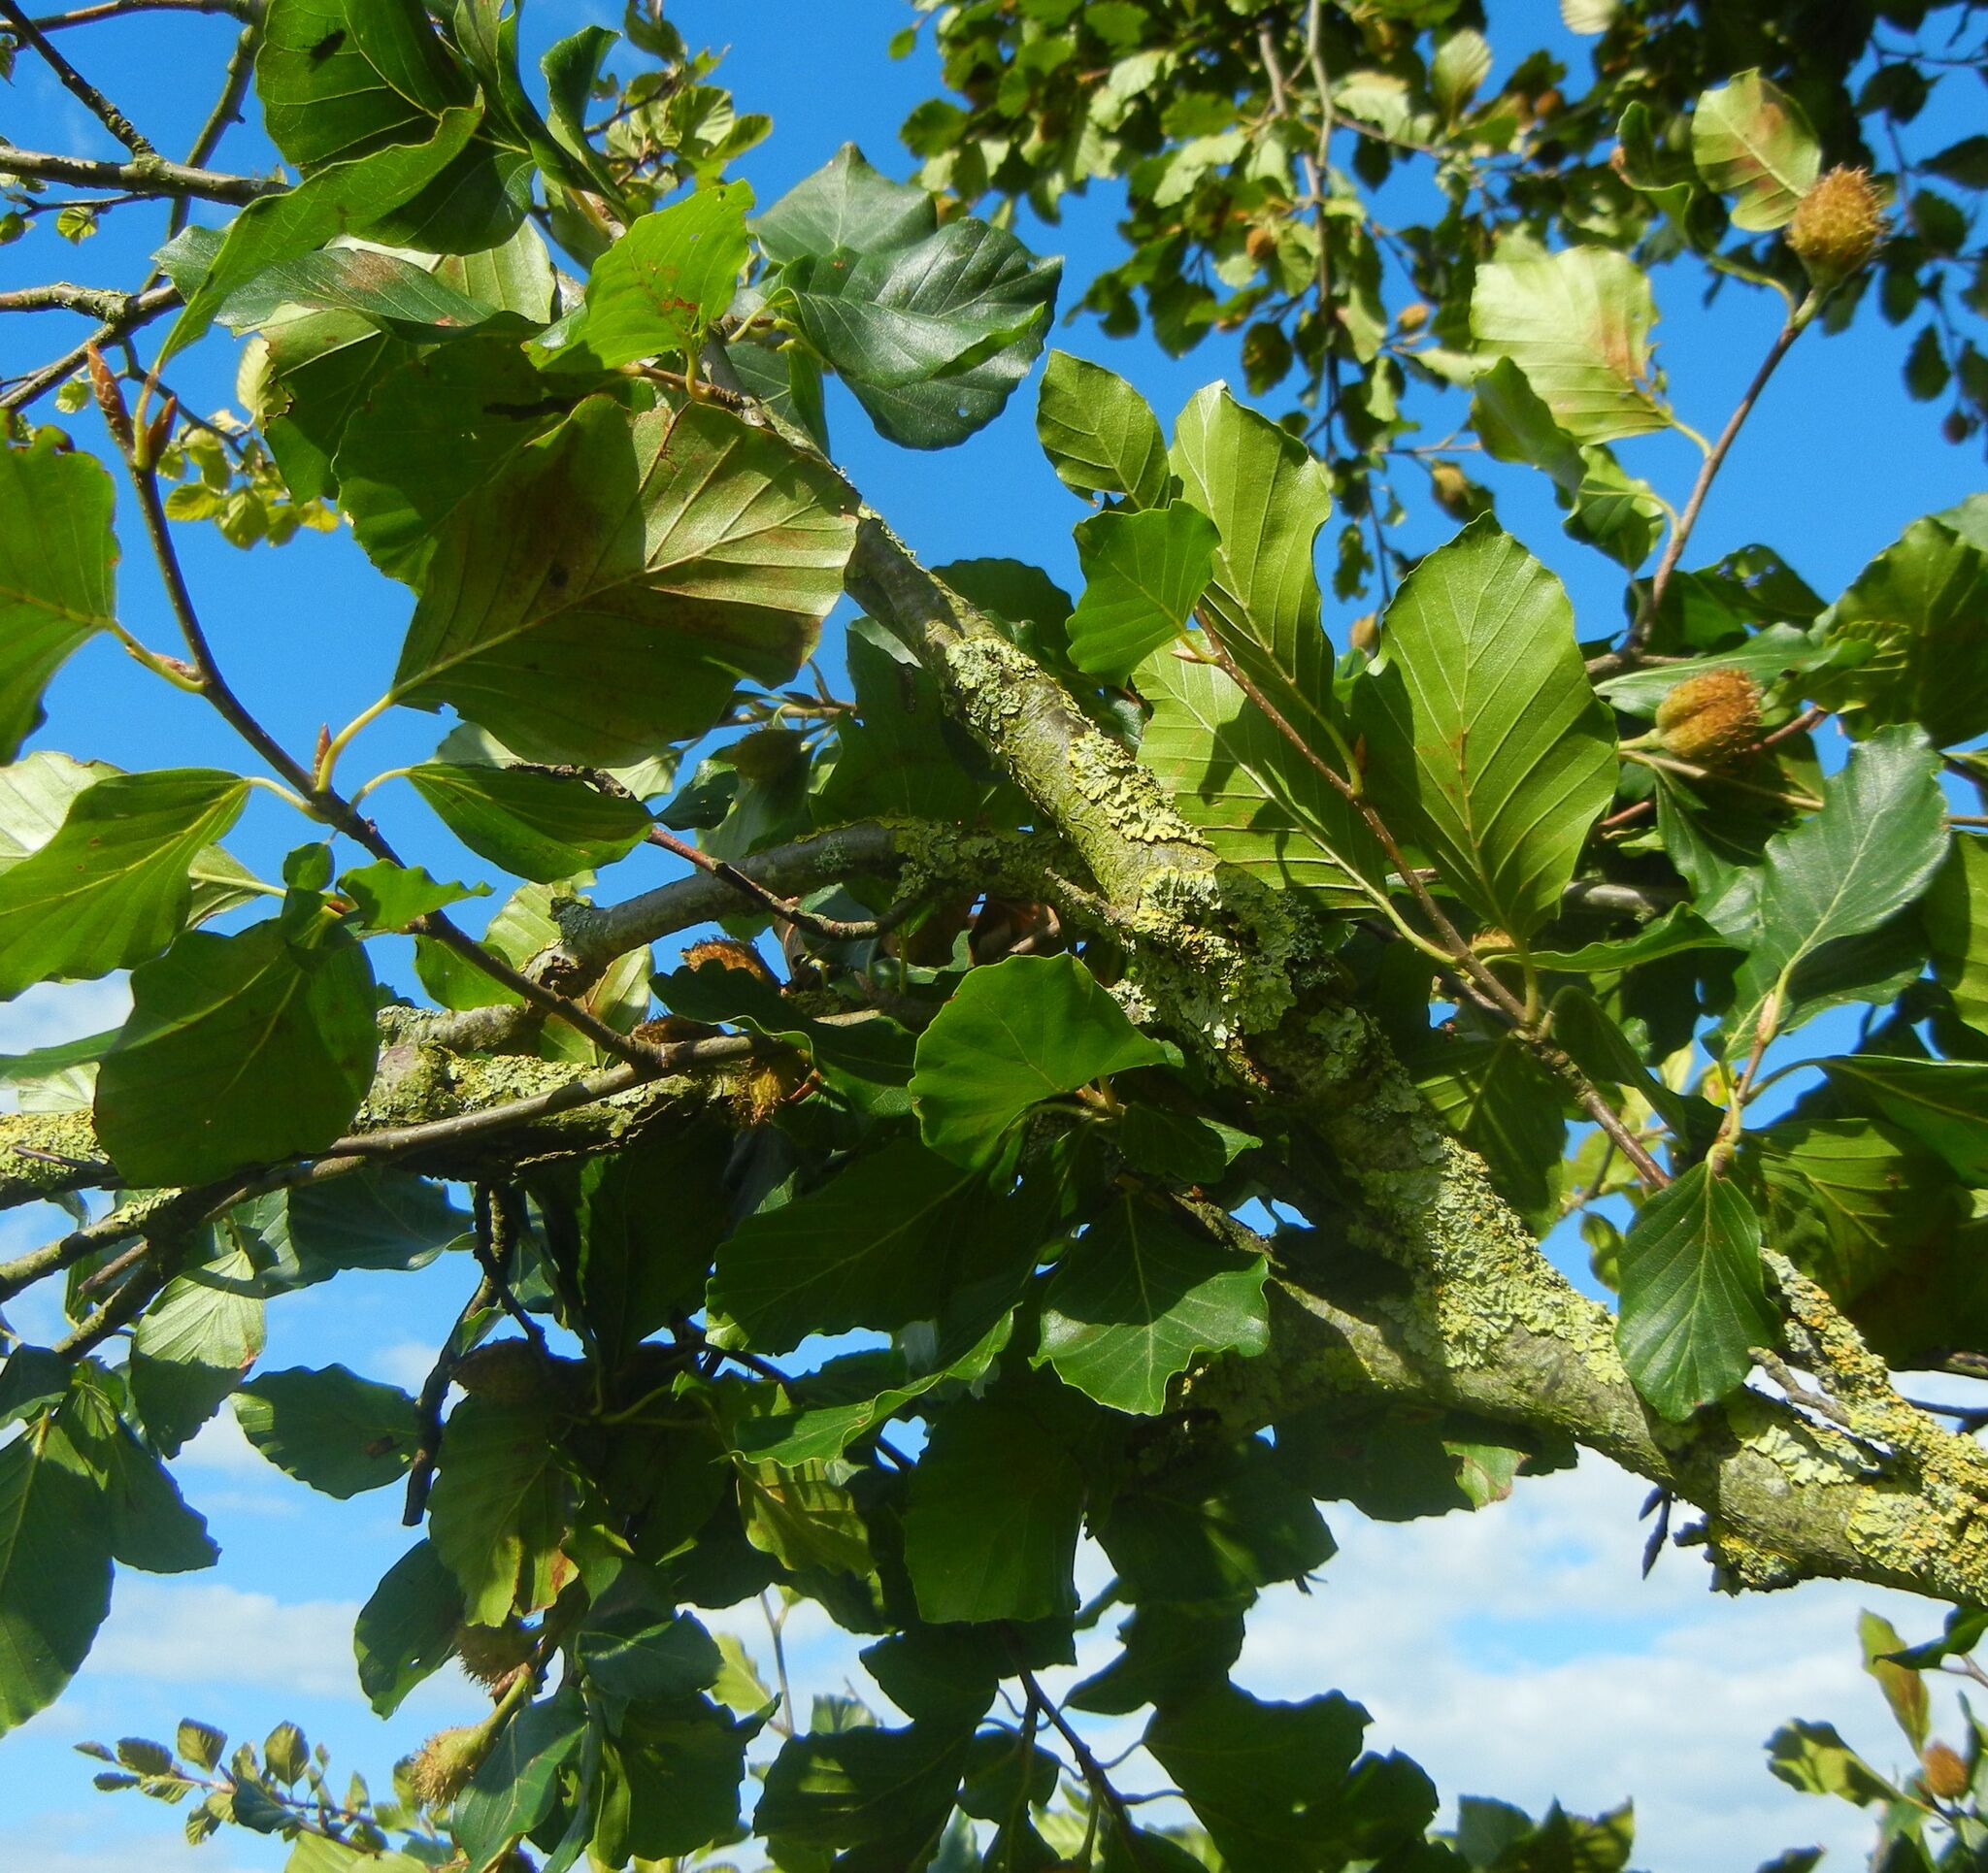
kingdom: Plantae
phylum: Tracheophyta
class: Magnoliopsida
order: Fagales
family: Fagaceae
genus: Fagus
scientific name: Fagus sylvatica
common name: Beech
